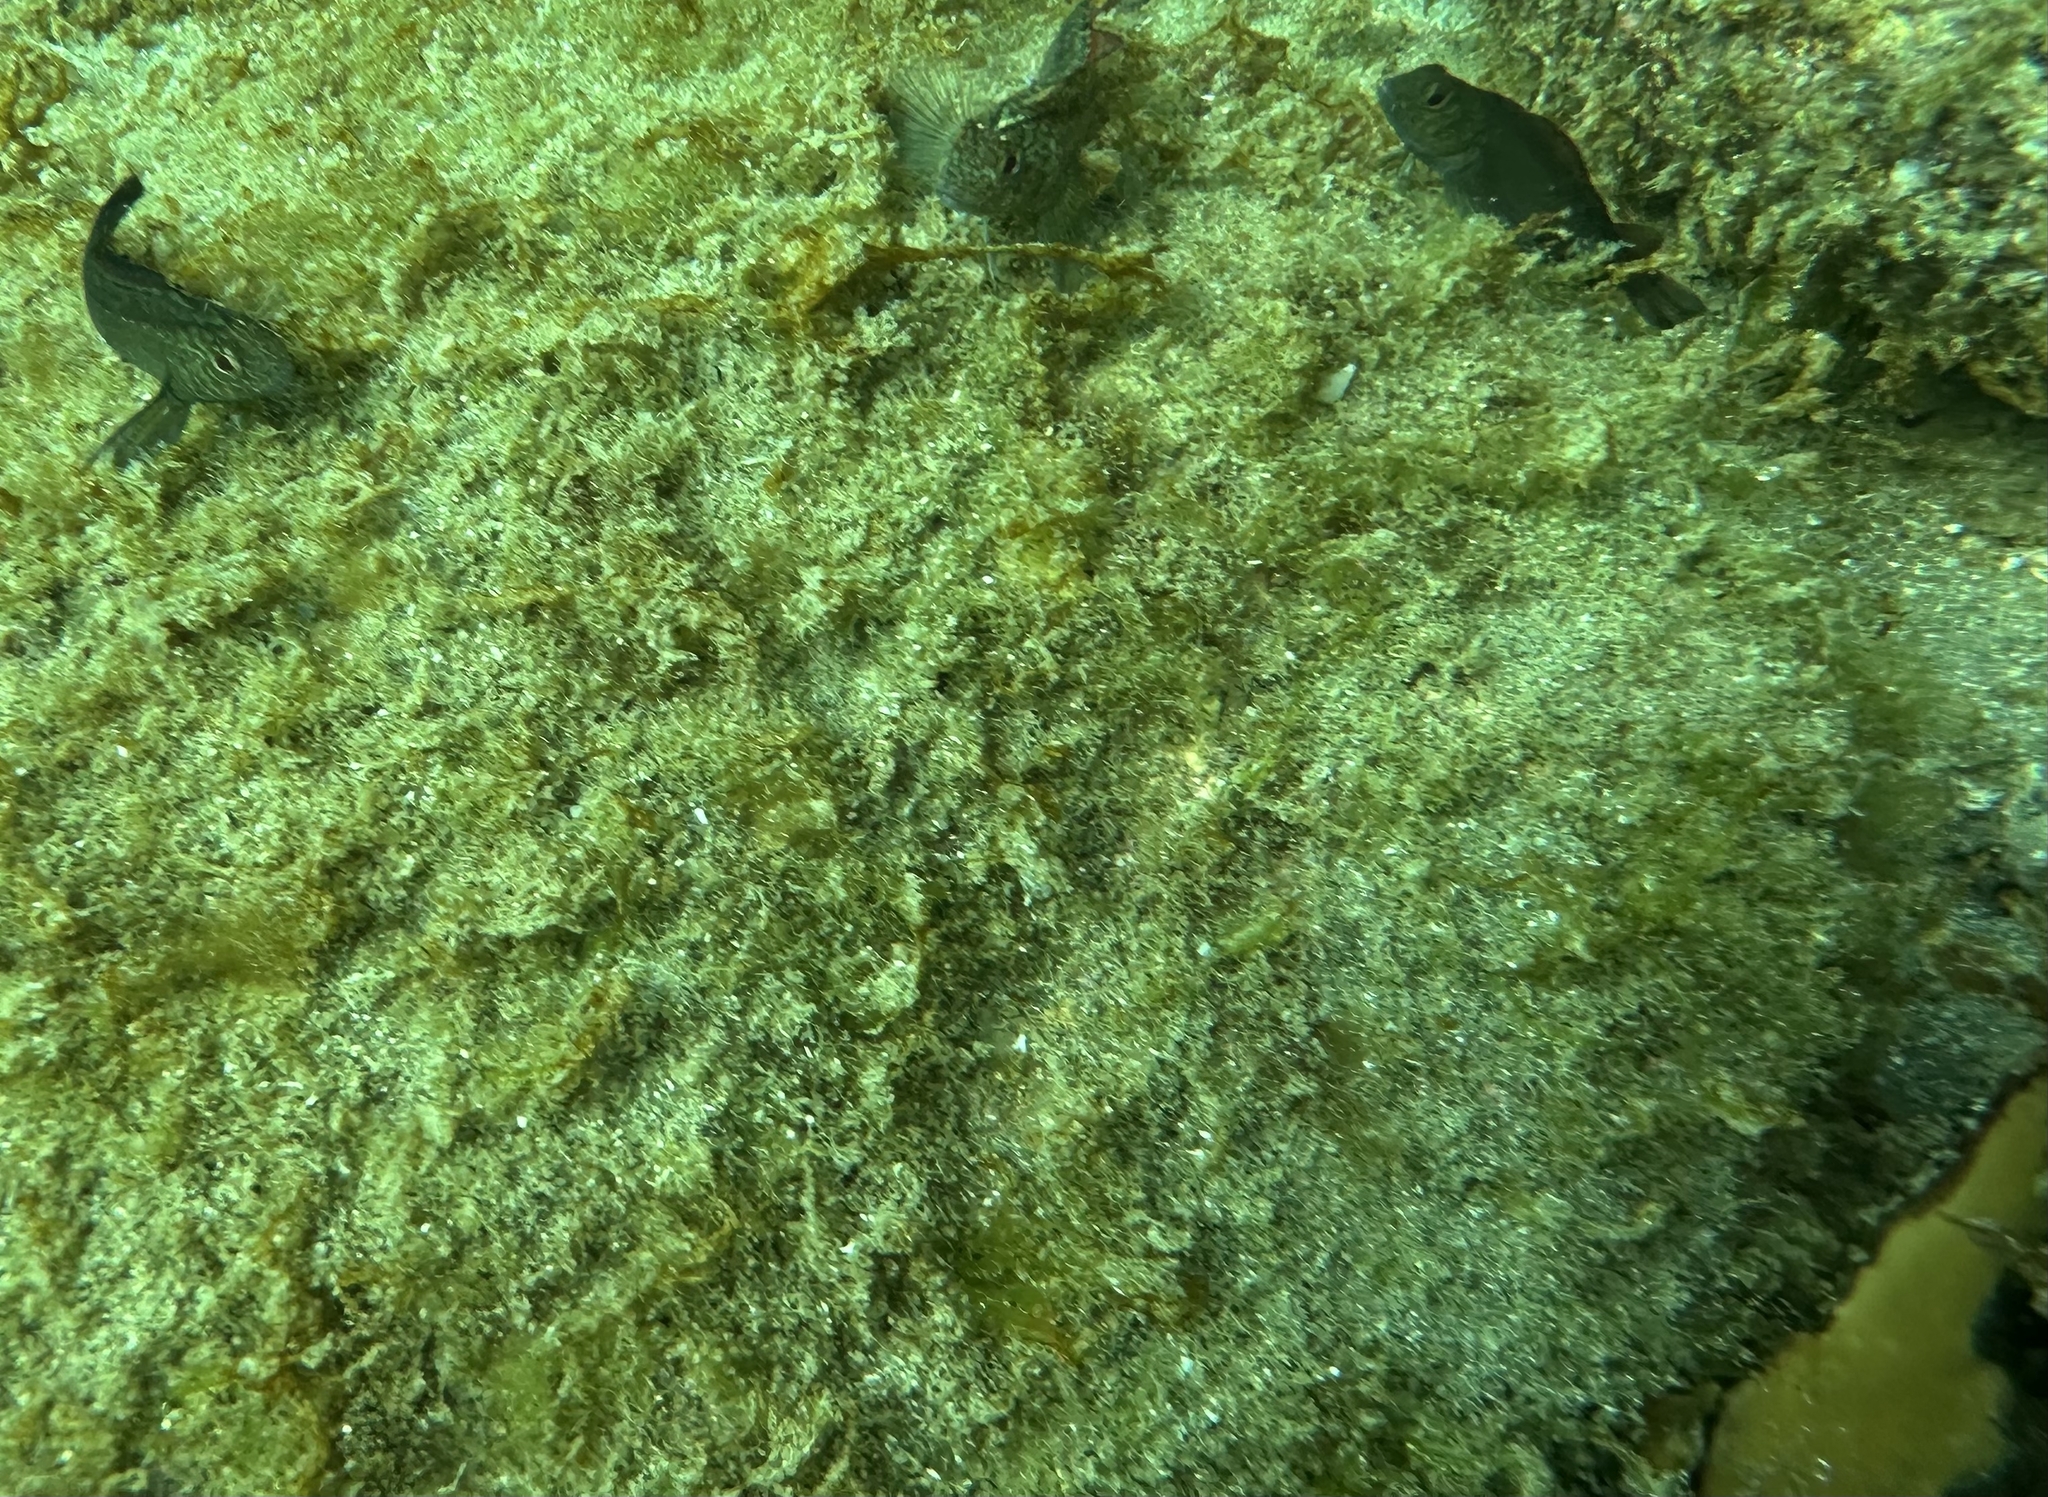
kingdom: Animalia
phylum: Chordata
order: Perciformes
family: Tripterygiidae
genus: Forsterygion
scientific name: Forsterygion lapillum
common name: Common triplefin
